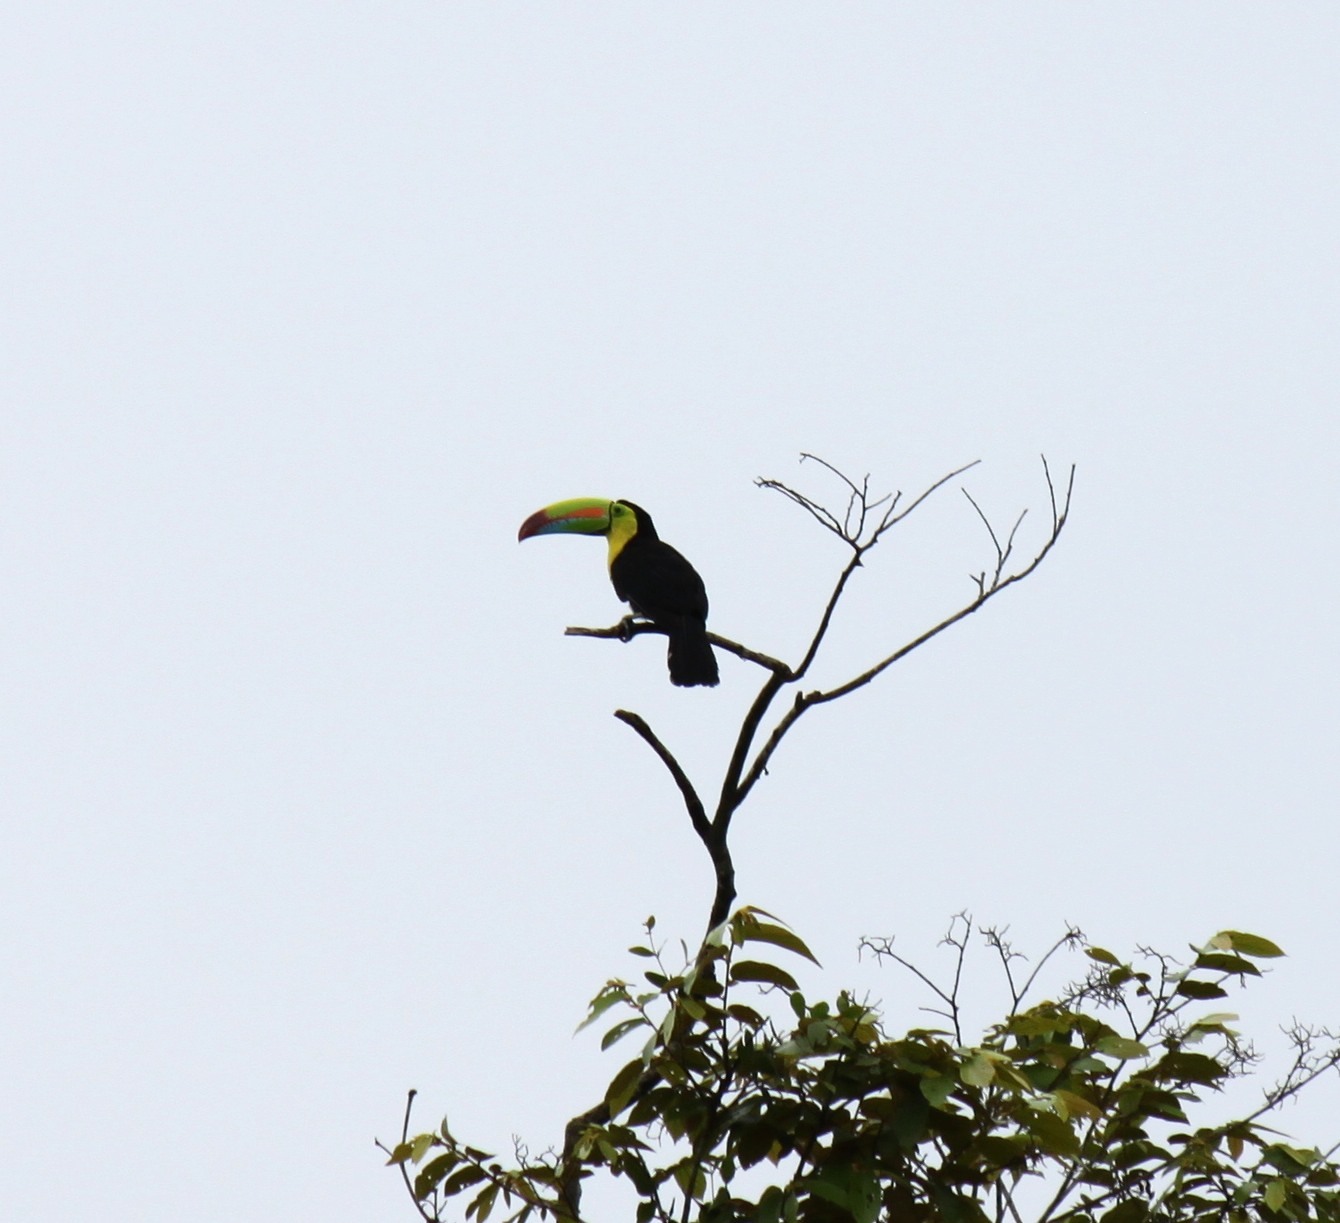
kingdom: Animalia
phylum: Chordata
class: Aves
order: Piciformes
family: Ramphastidae
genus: Ramphastos
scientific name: Ramphastos sulfuratus
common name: Keel-billed toucan
